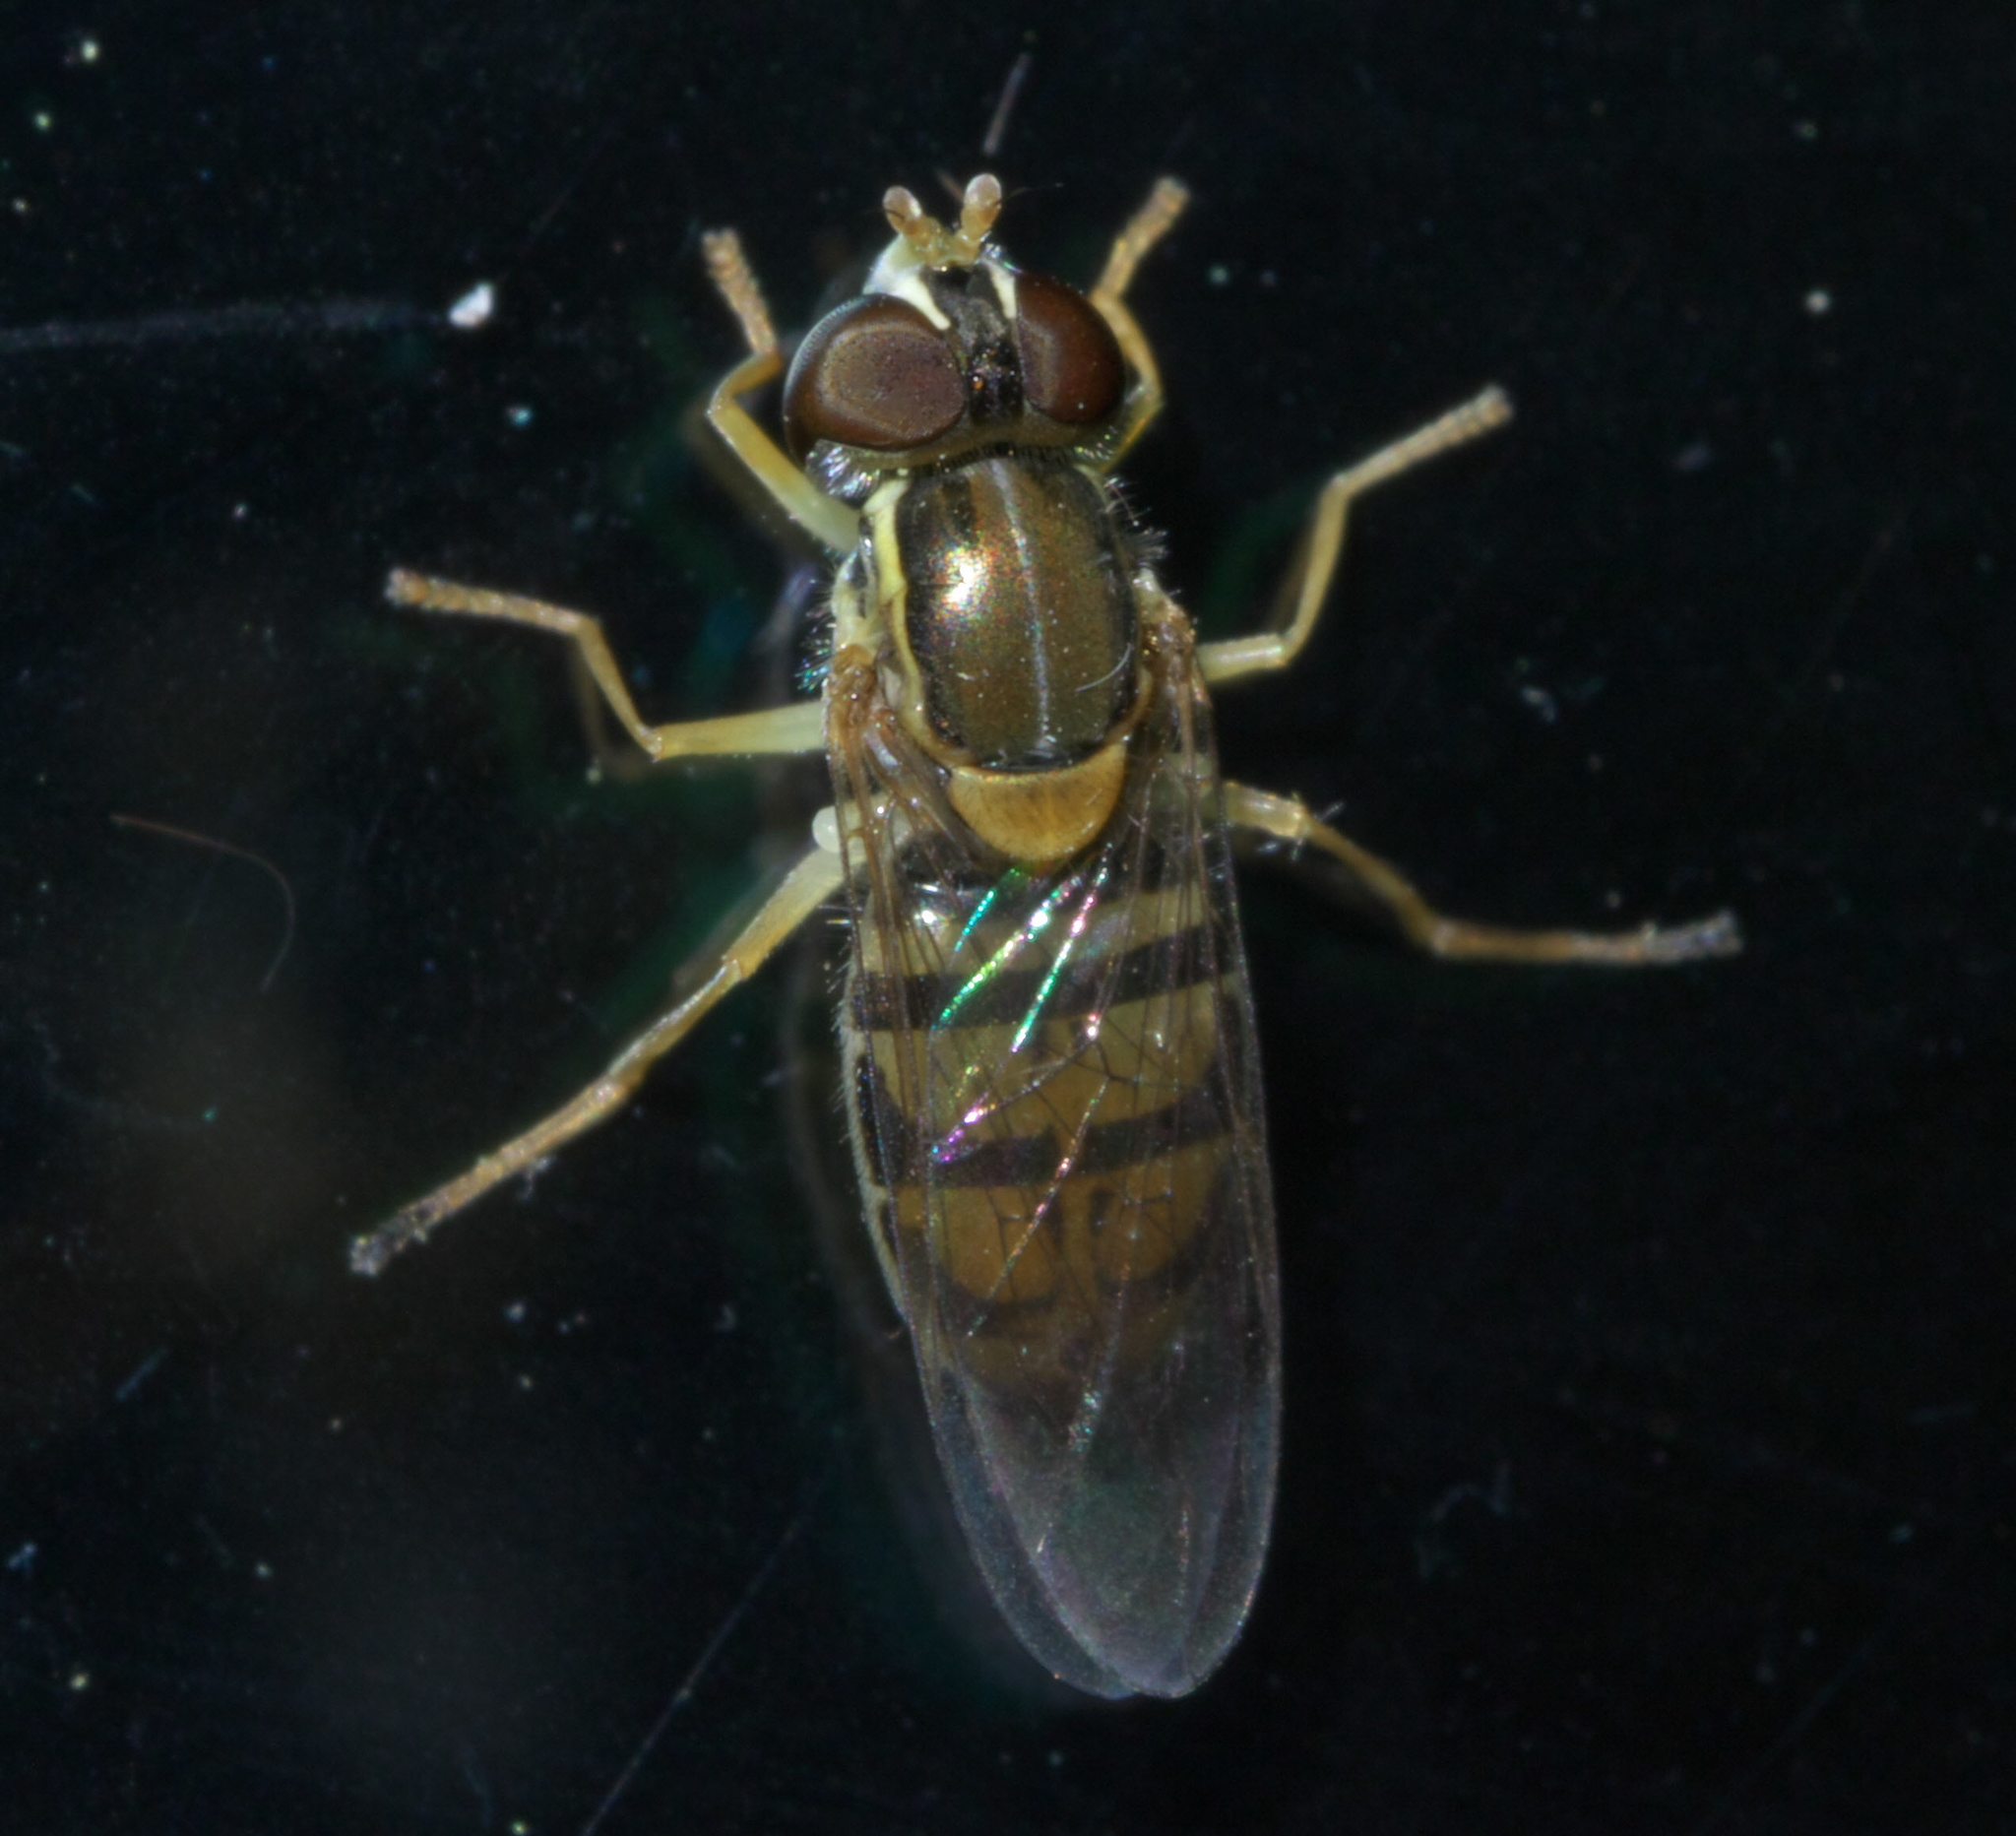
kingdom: Animalia
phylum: Arthropoda
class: Insecta
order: Diptera
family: Syrphidae
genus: Toxomerus
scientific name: Toxomerus marginatus
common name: Syrphid fly
